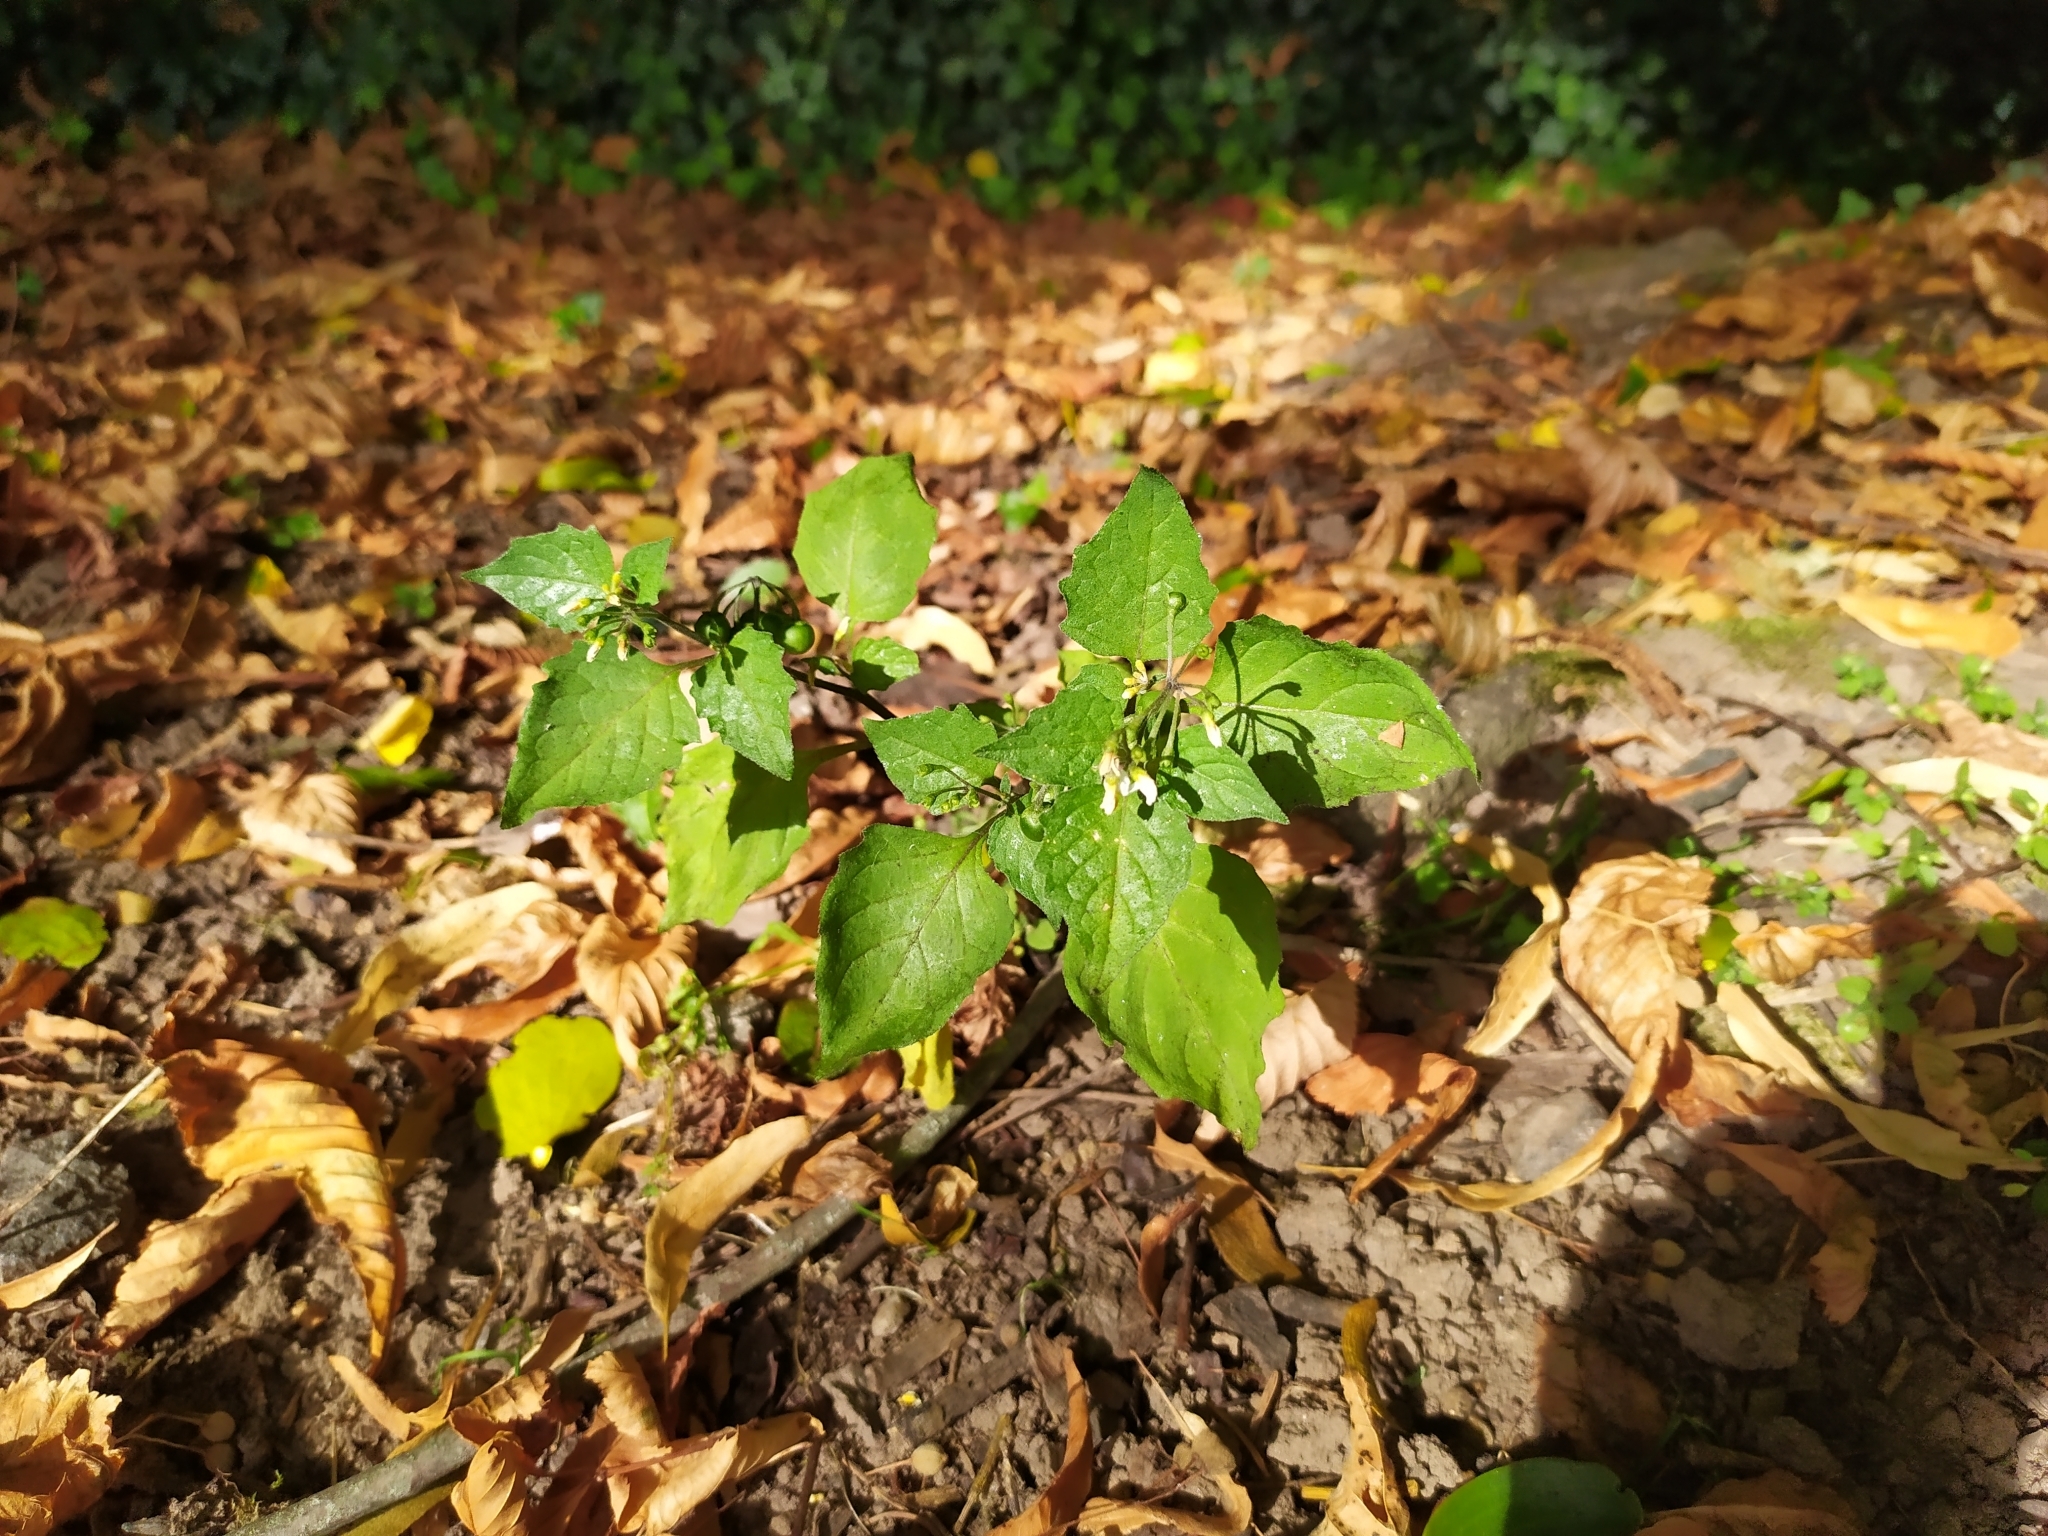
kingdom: Plantae
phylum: Tracheophyta
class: Magnoliopsida
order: Solanales
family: Solanaceae
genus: Solanum
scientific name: Solanum nigrum
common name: Black nightshade
